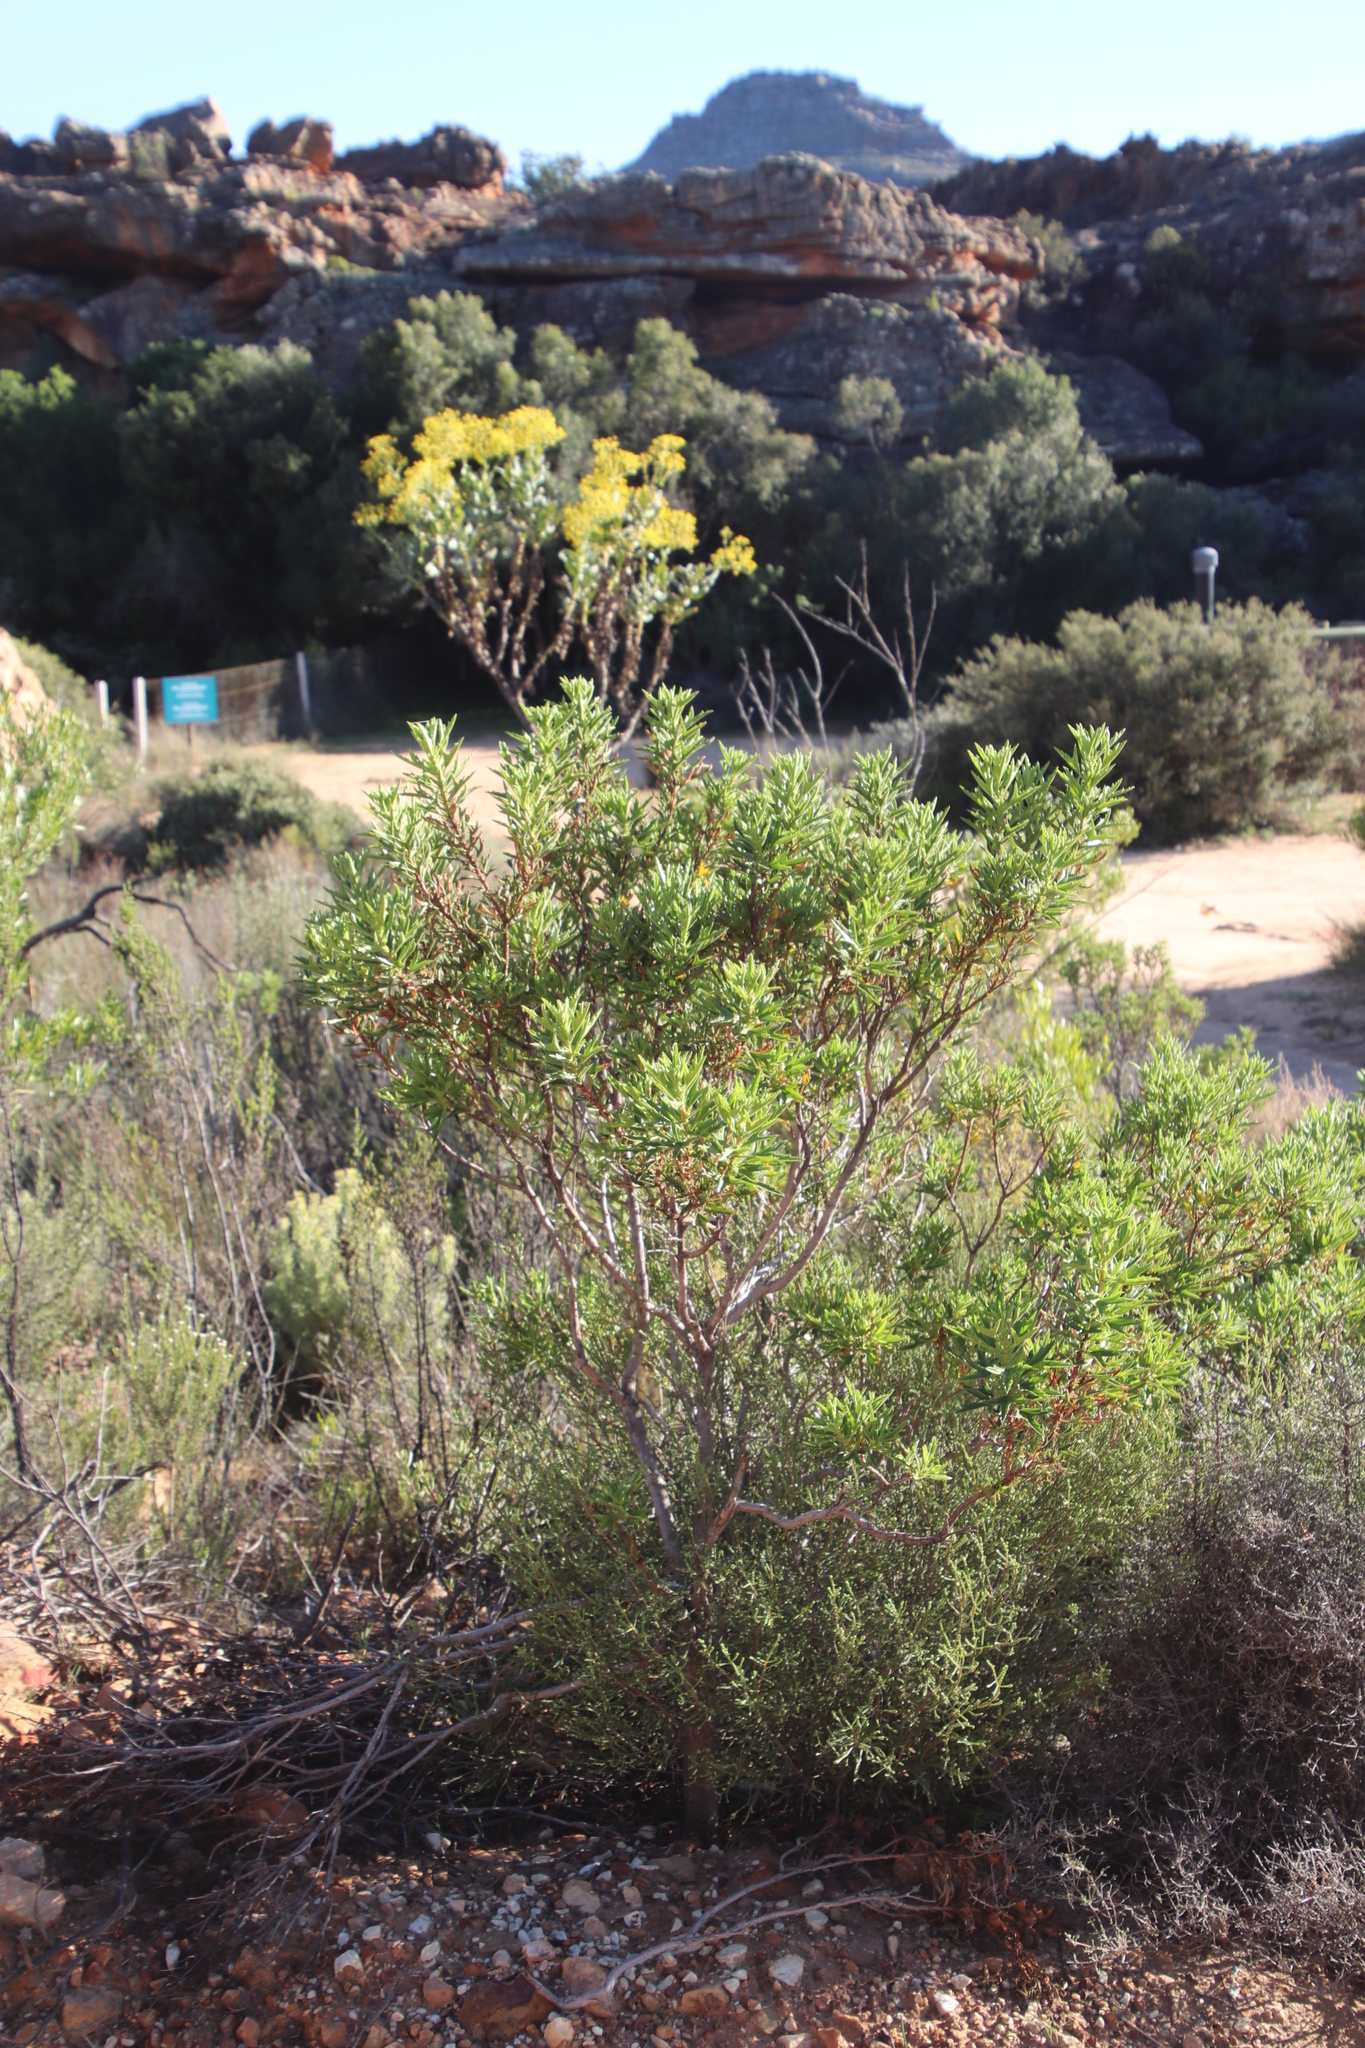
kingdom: Plantae
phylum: Tracheophyta
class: Magnoliopsida
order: Geraniales
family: Geraniaceae
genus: Pelargonium
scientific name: Pelargonium scabrum
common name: Apricot geranium
